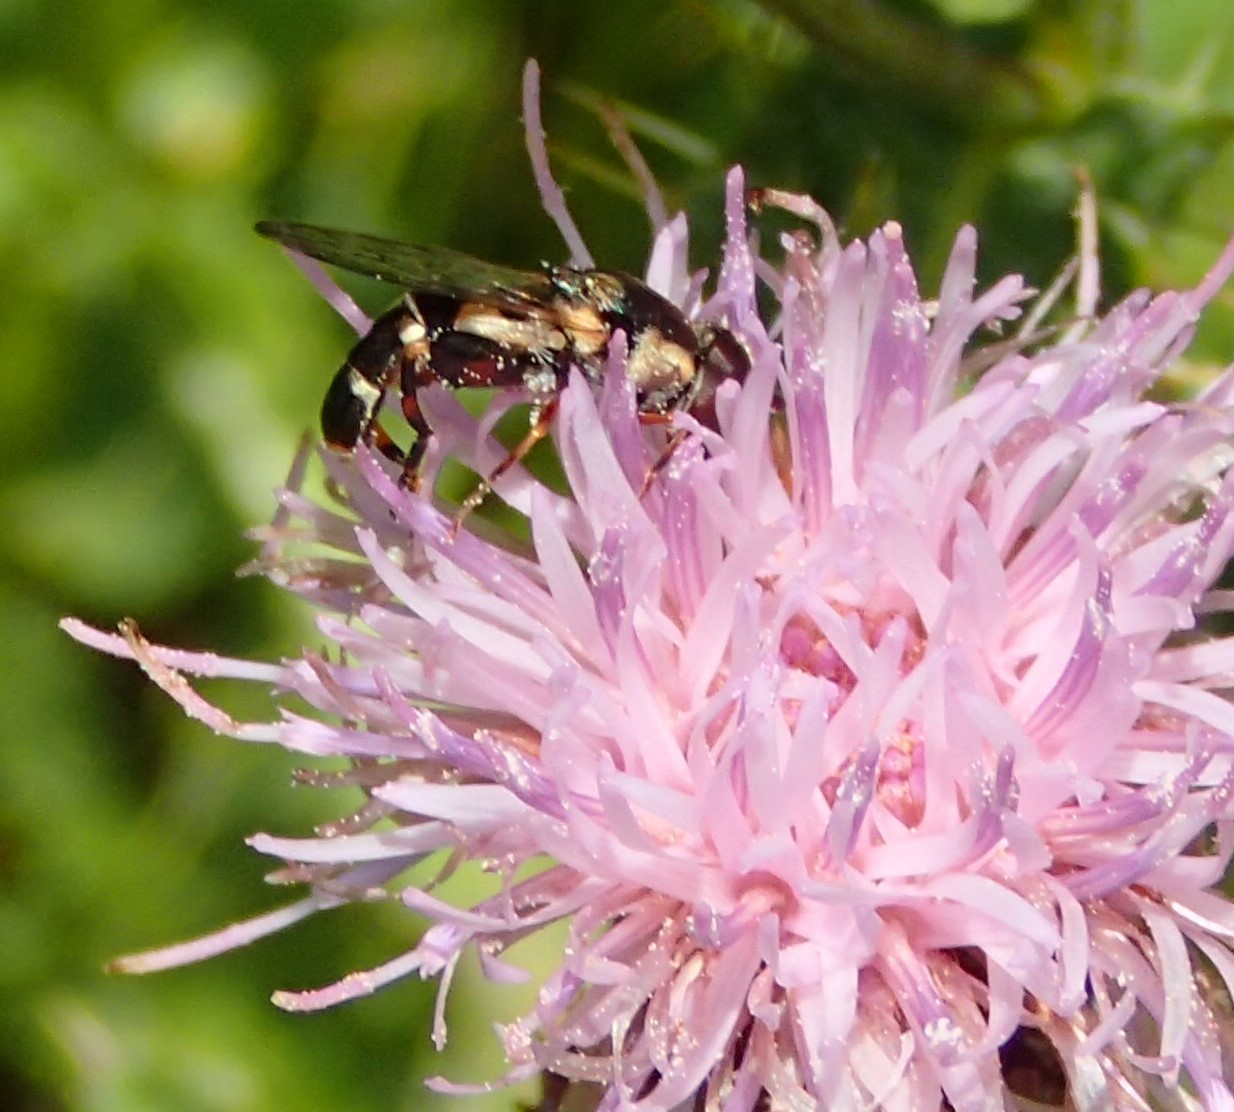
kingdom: Animalia
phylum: Arthropoda
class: Insecta
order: Diptera
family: Syrphidae
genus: Syritta
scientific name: Syritta pipiens
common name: Hover fly
